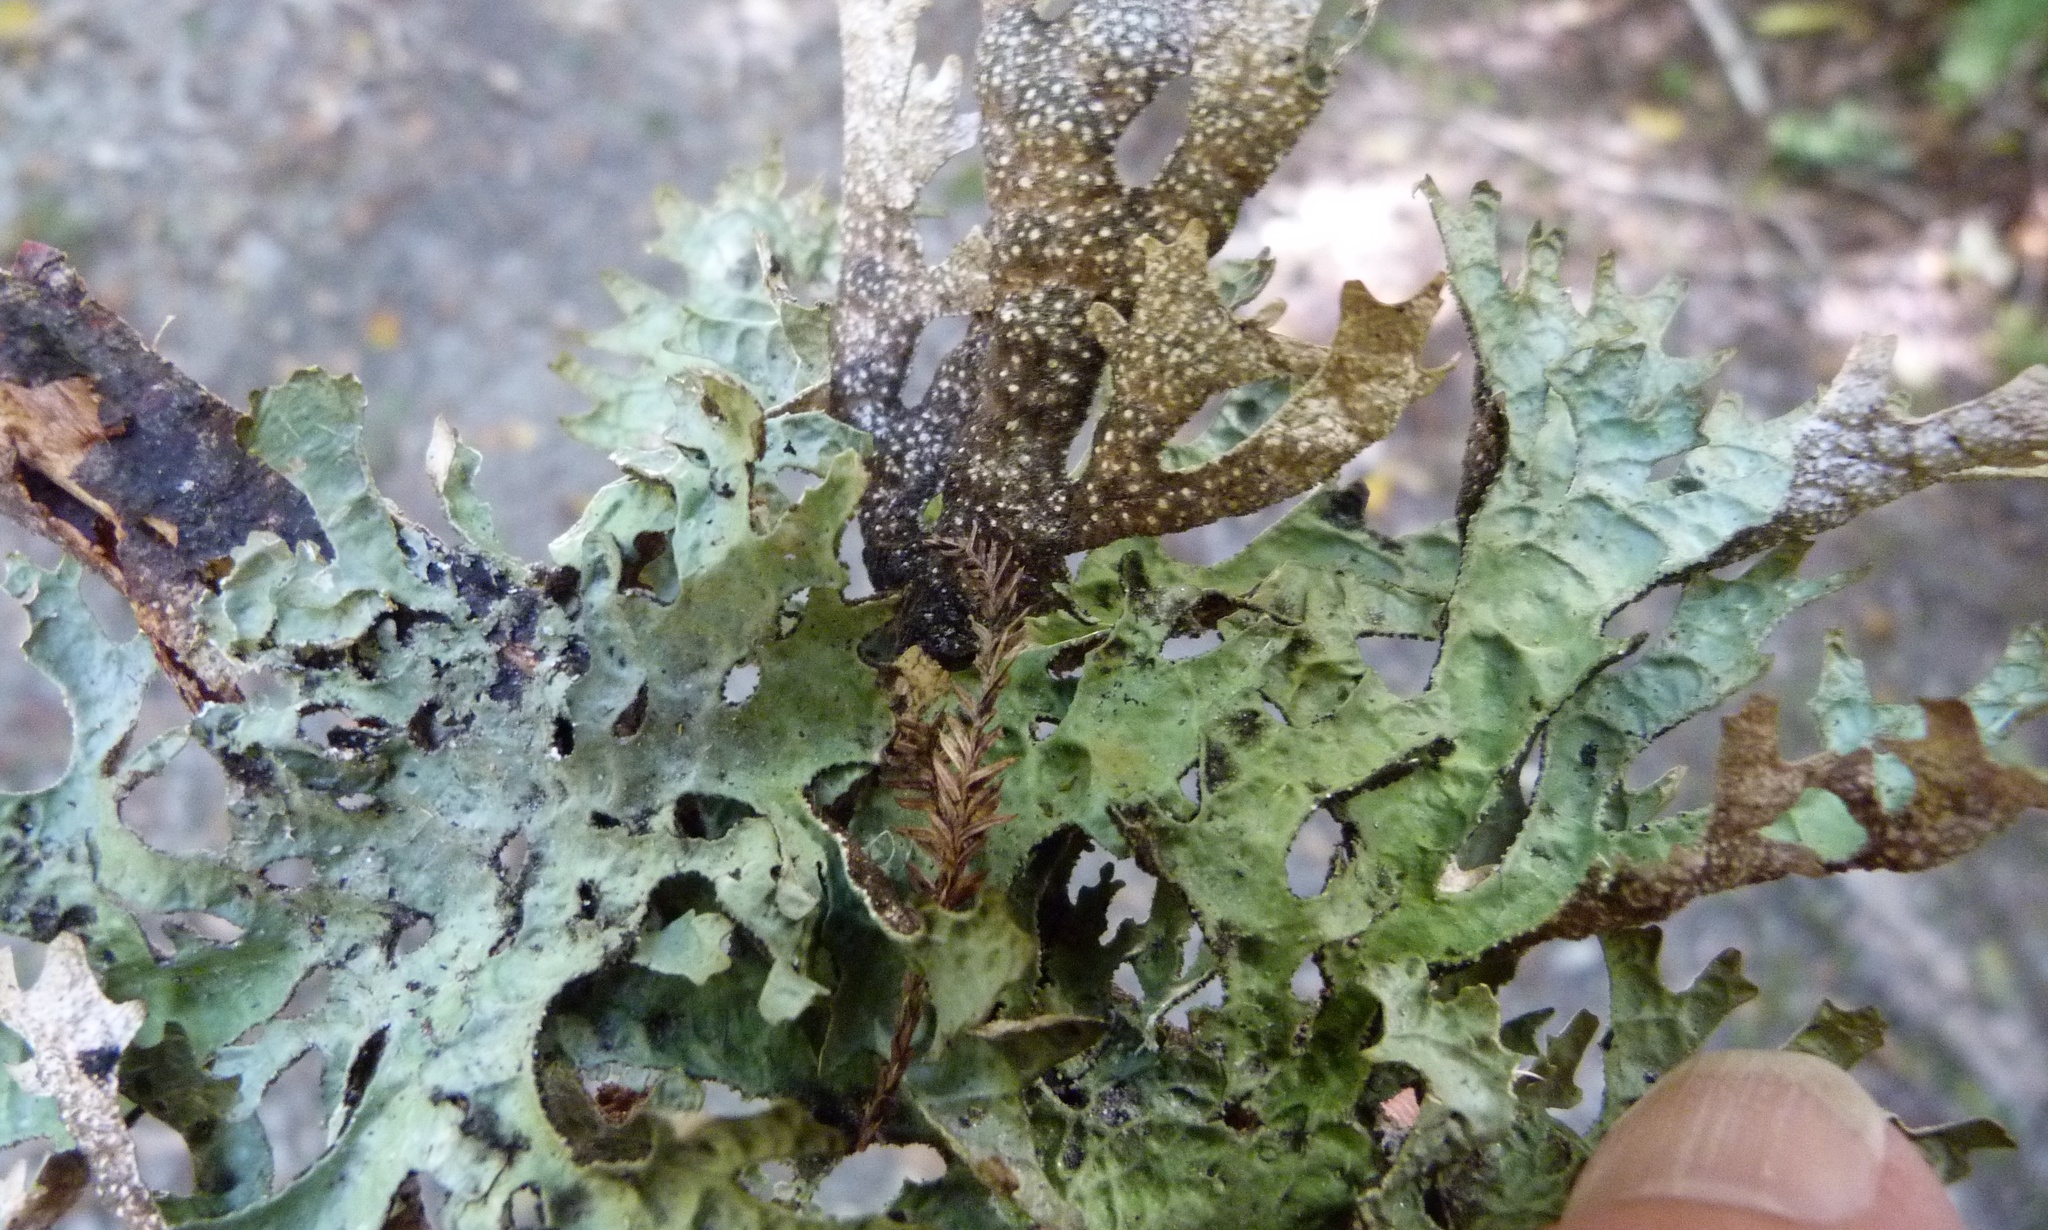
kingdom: Fungi
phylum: Ascomycota
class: Lecanoromycetes
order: Peltigerales
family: Lobariaceae
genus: Pseudocyphellaria
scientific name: Pseudocyphellaria billardierei
